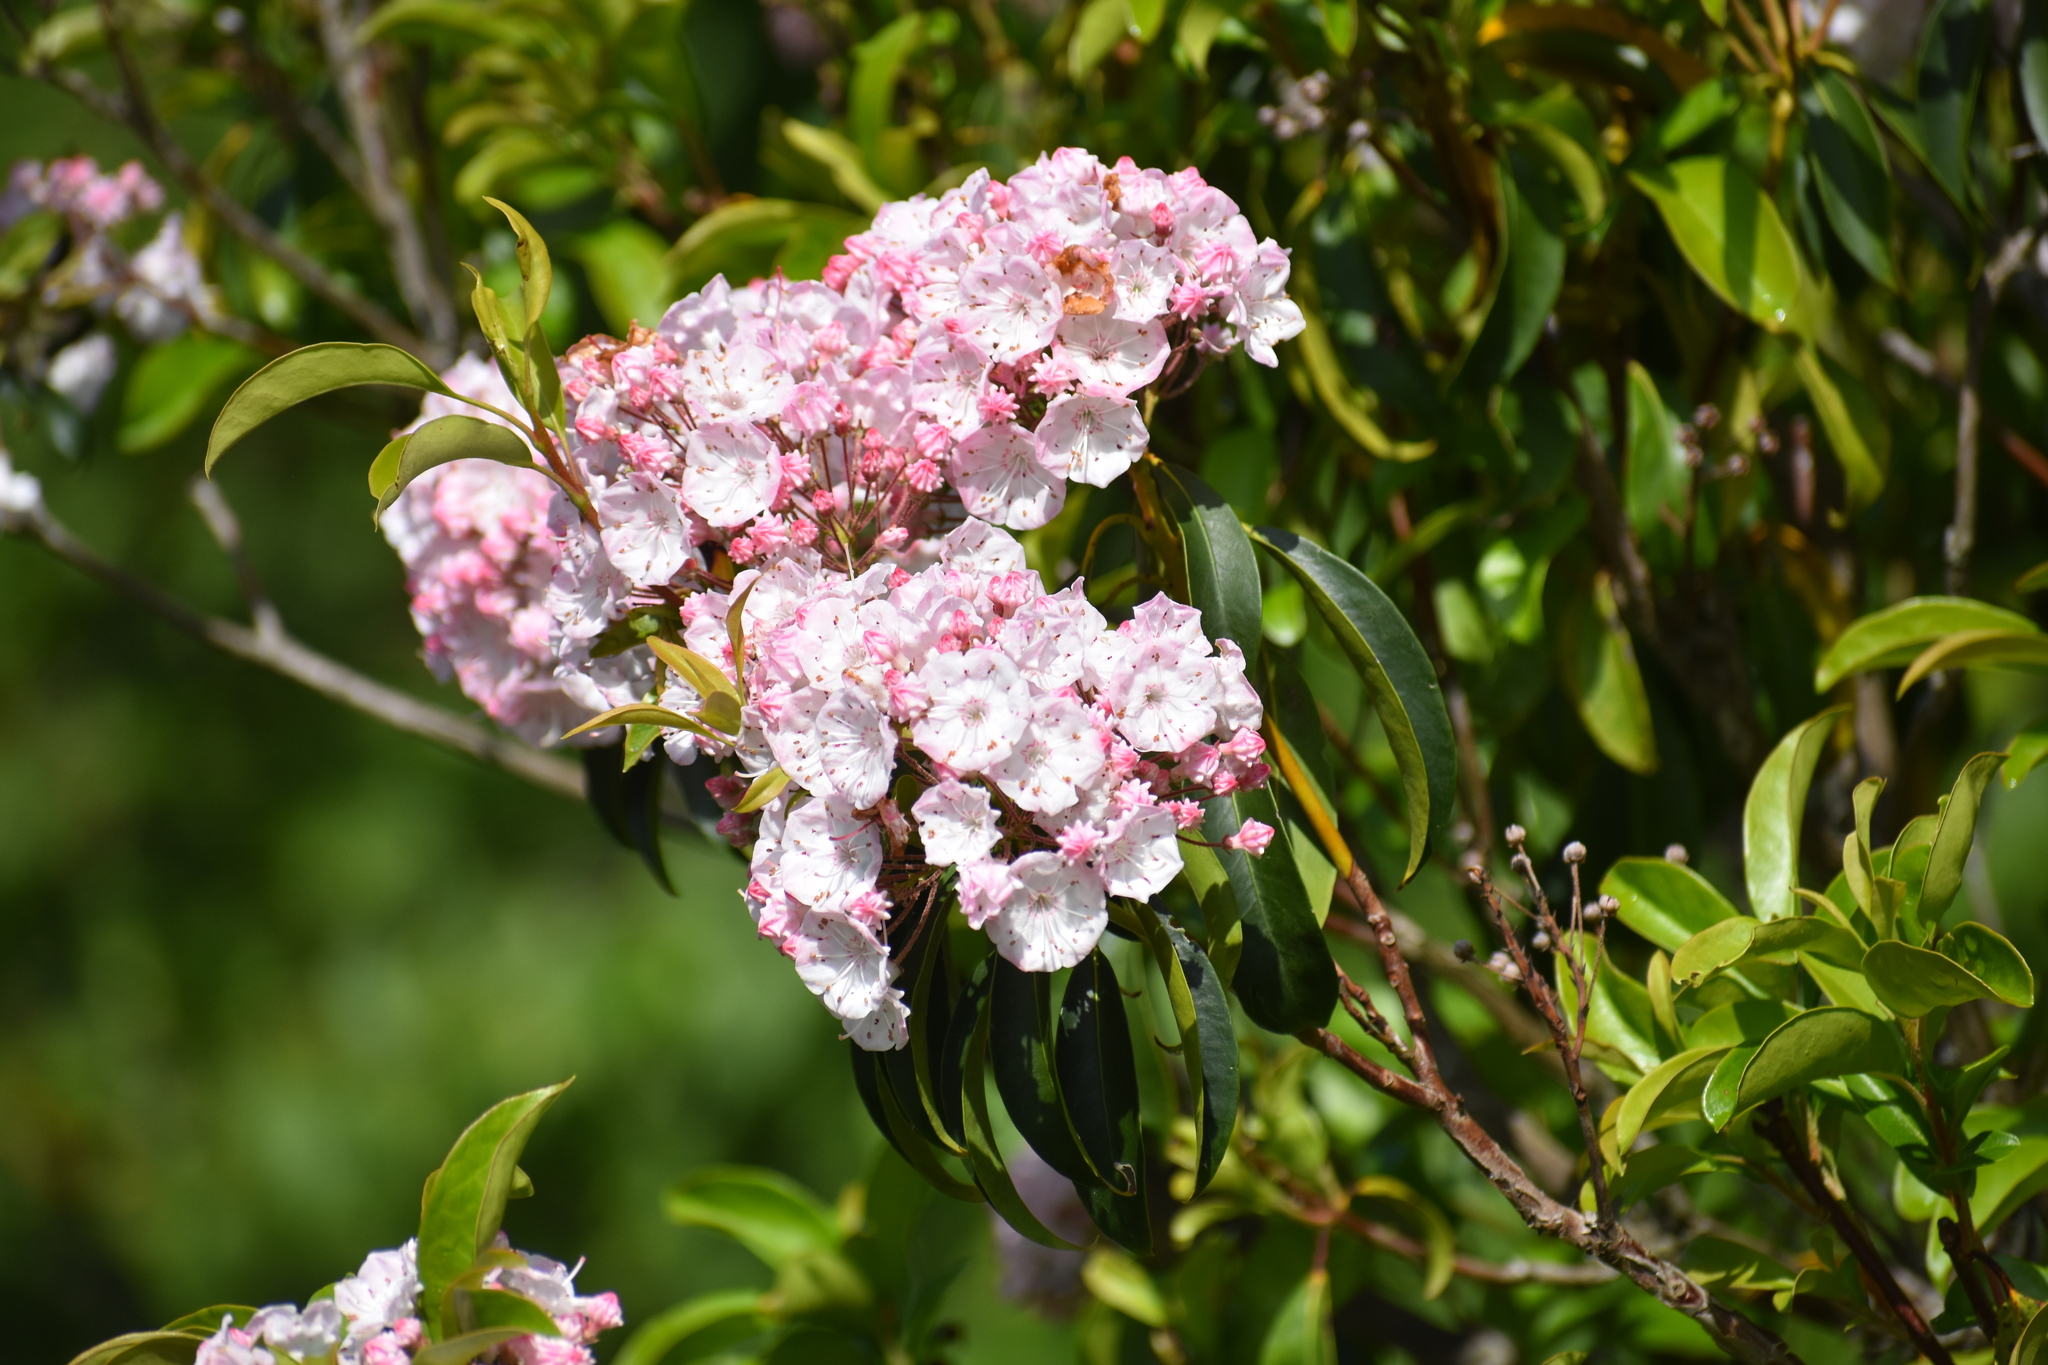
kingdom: Plantae
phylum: Tracheophyta
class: Magnoliopsida
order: Ericales
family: Ericaceae
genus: Kalmia
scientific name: Kalmia latifolia
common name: Mountain-laurel
